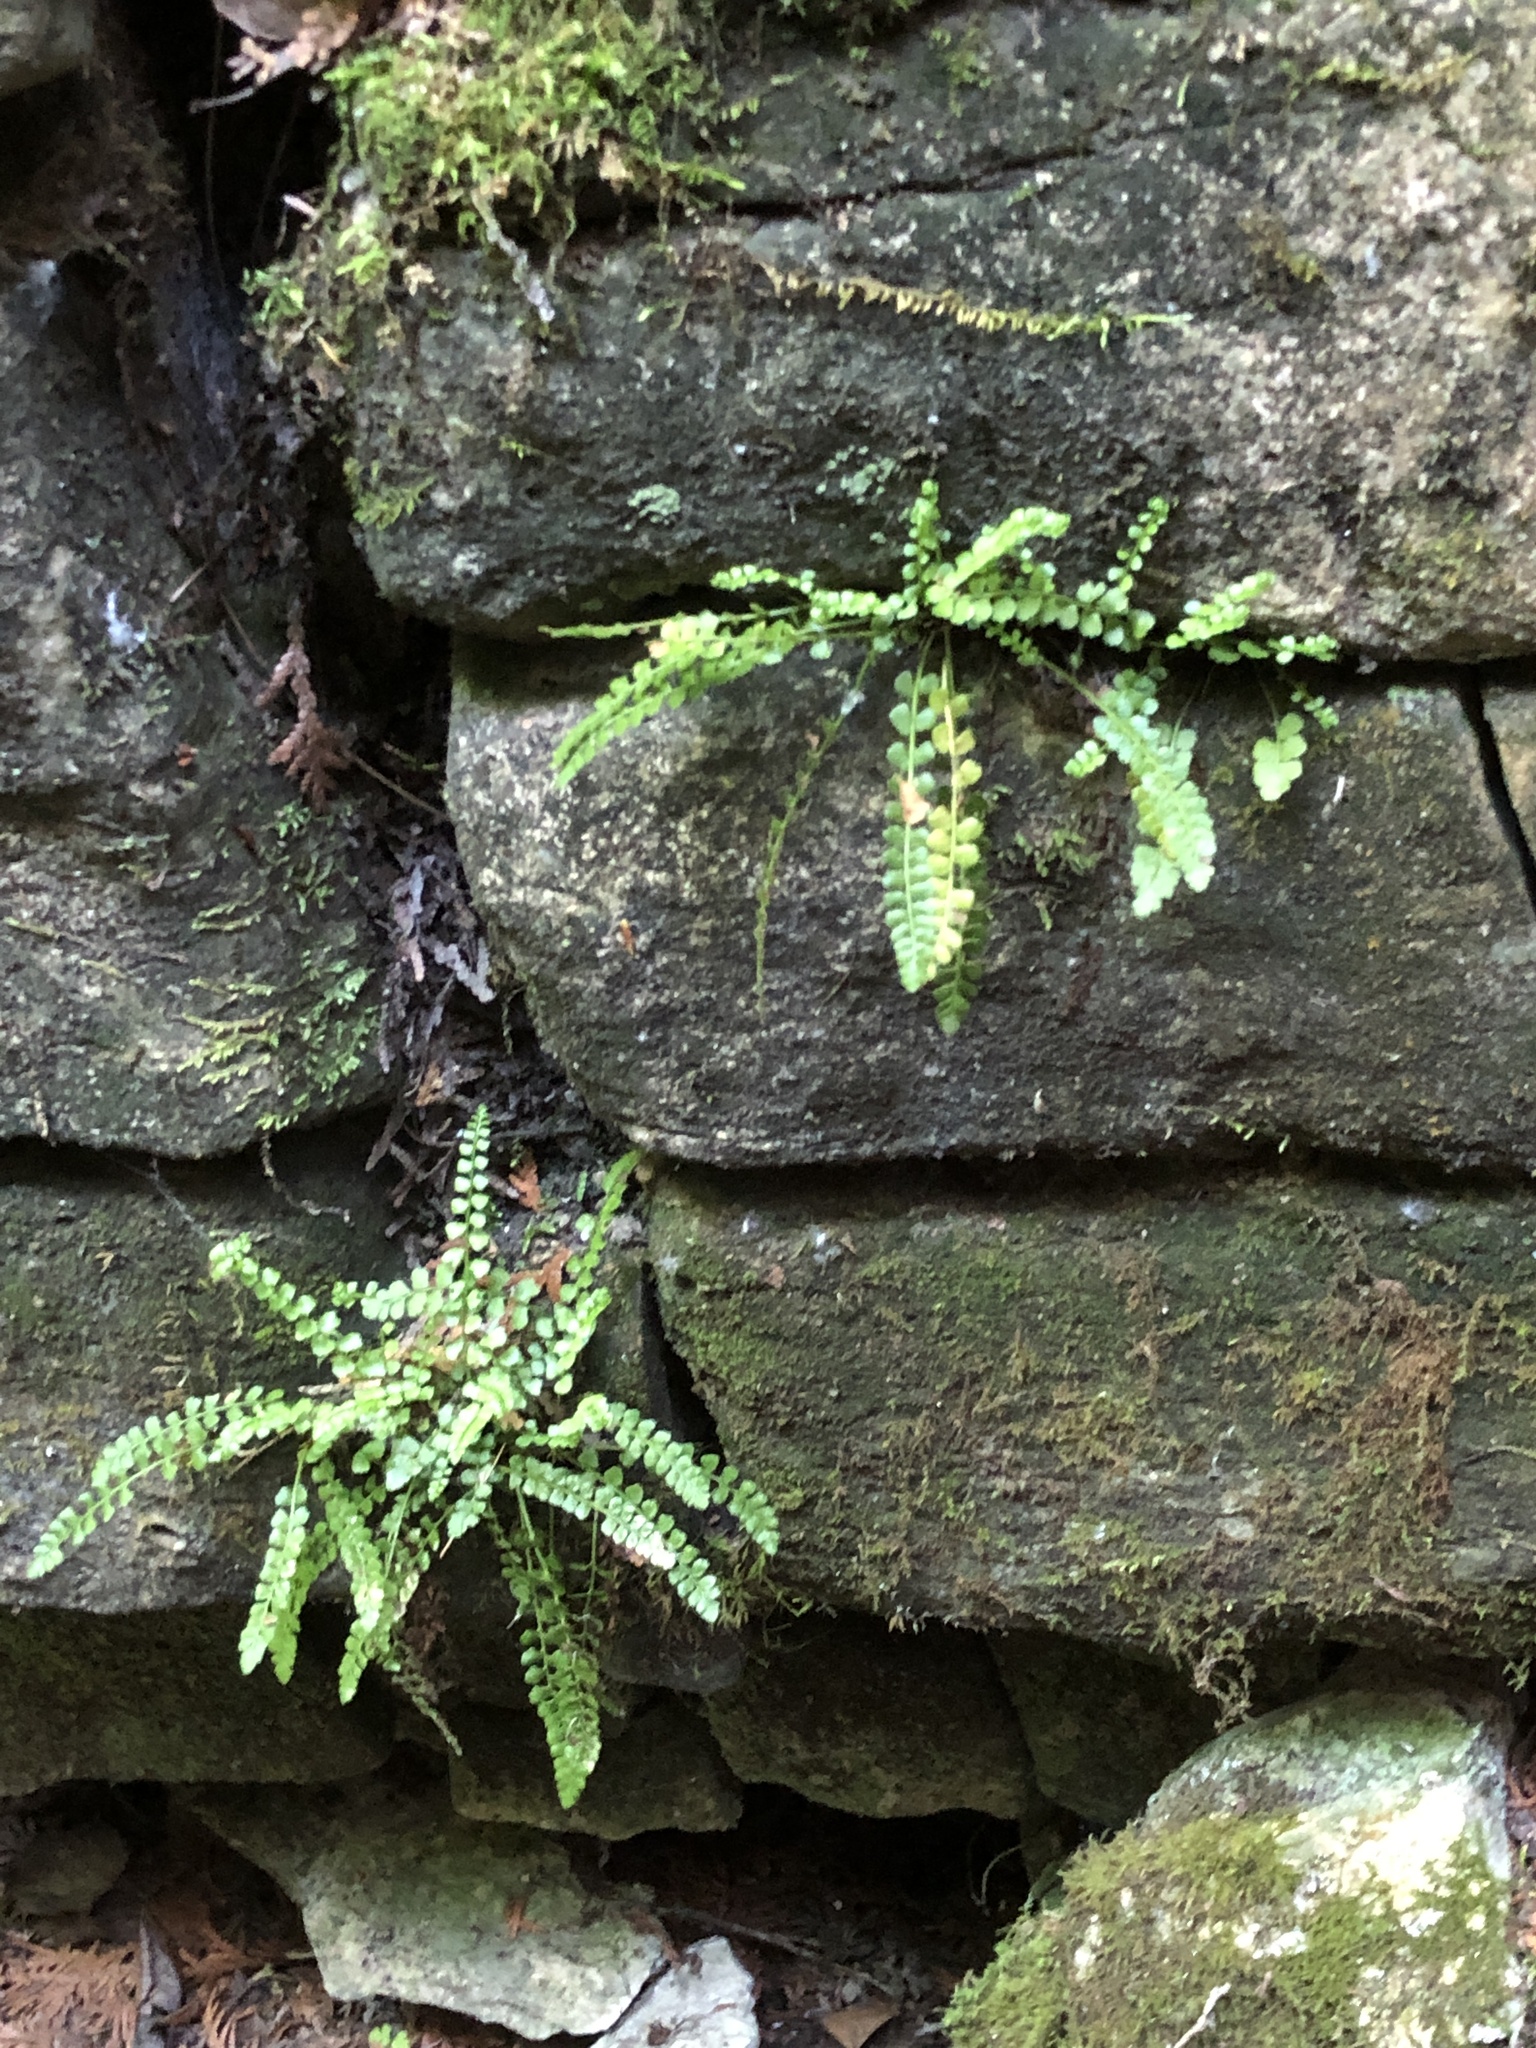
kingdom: Plantae
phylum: Tracheophyta
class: Polypodiopsida
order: Polypodiales
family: Aspleniaceae
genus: Asplenium
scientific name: Asplenium viride
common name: Green spleenwort
